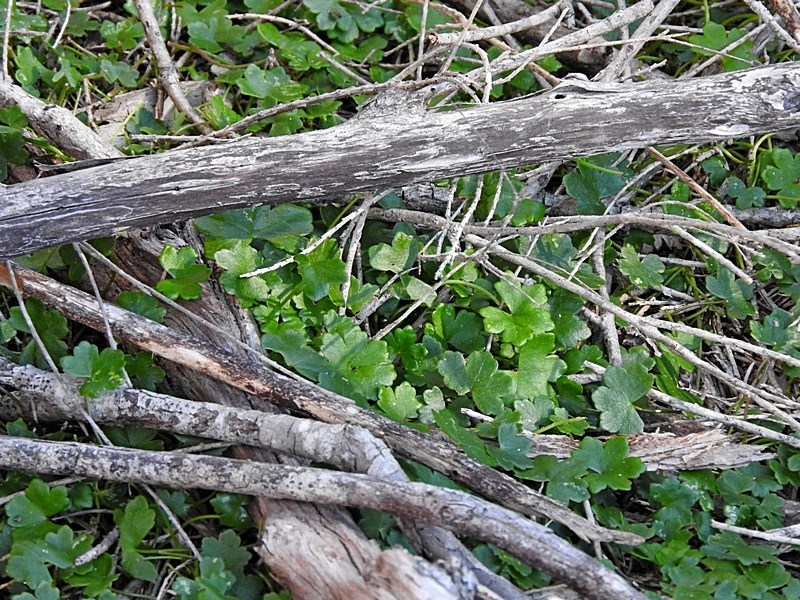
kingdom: Plantae
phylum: Tracheophyta
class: Magnoliopsida
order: Apiales
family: Araliaceae
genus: Hydrocotyle
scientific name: Hydrocotyle sibthorpioides
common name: Lawn marshpennywort
